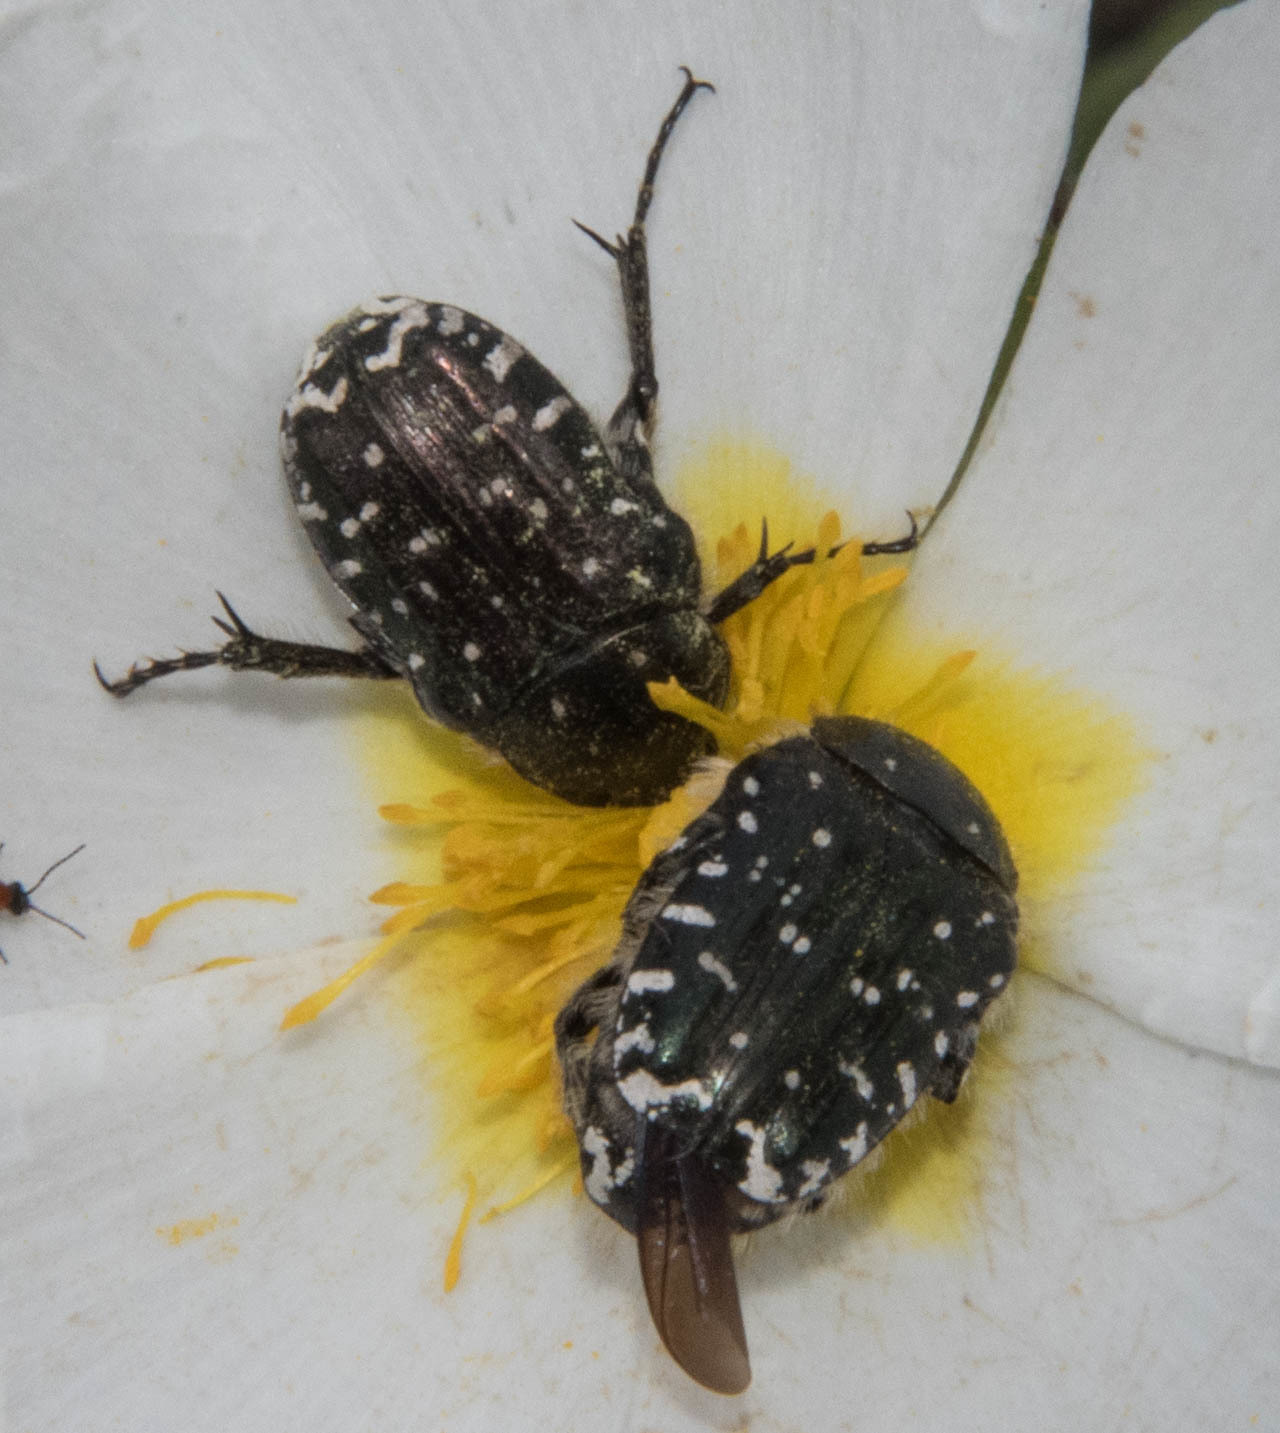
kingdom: Animalia
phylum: Arthropoda
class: Insecta
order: Coleoptera
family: Scarabaeidae
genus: Oxythyrea
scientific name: Oxythyrea funesta
